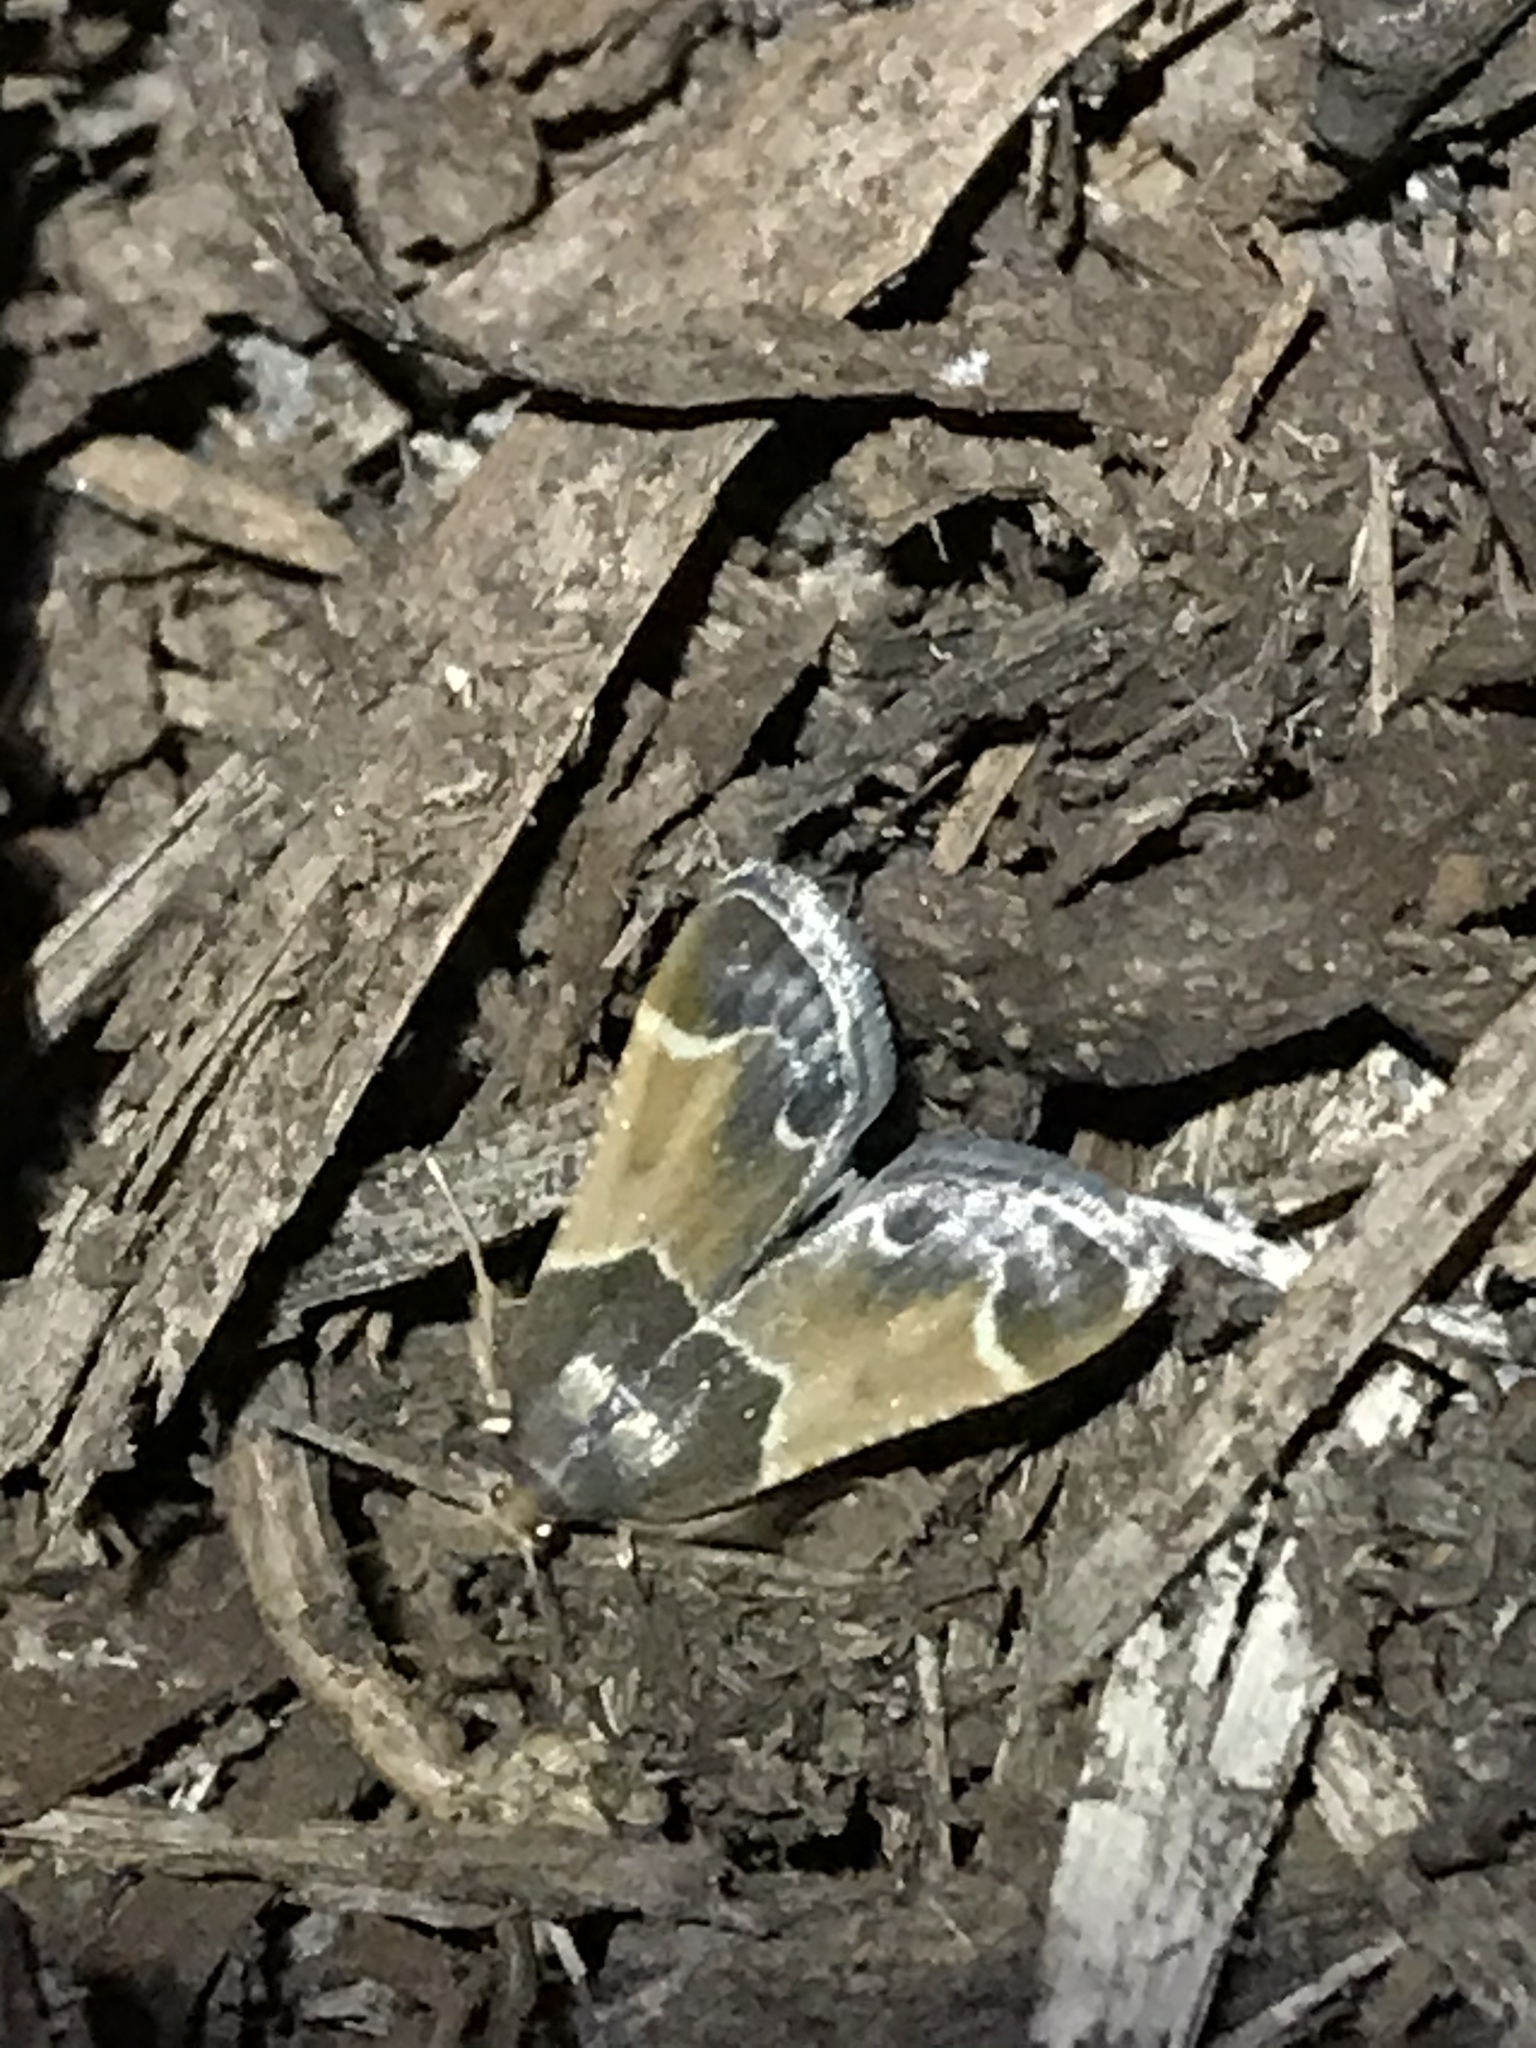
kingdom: Animalia
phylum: Arthropoda
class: Insecta
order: Lepidoptera
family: Pyralidae
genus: Pyralis
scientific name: Pyralis farinalis
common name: Meal moth
